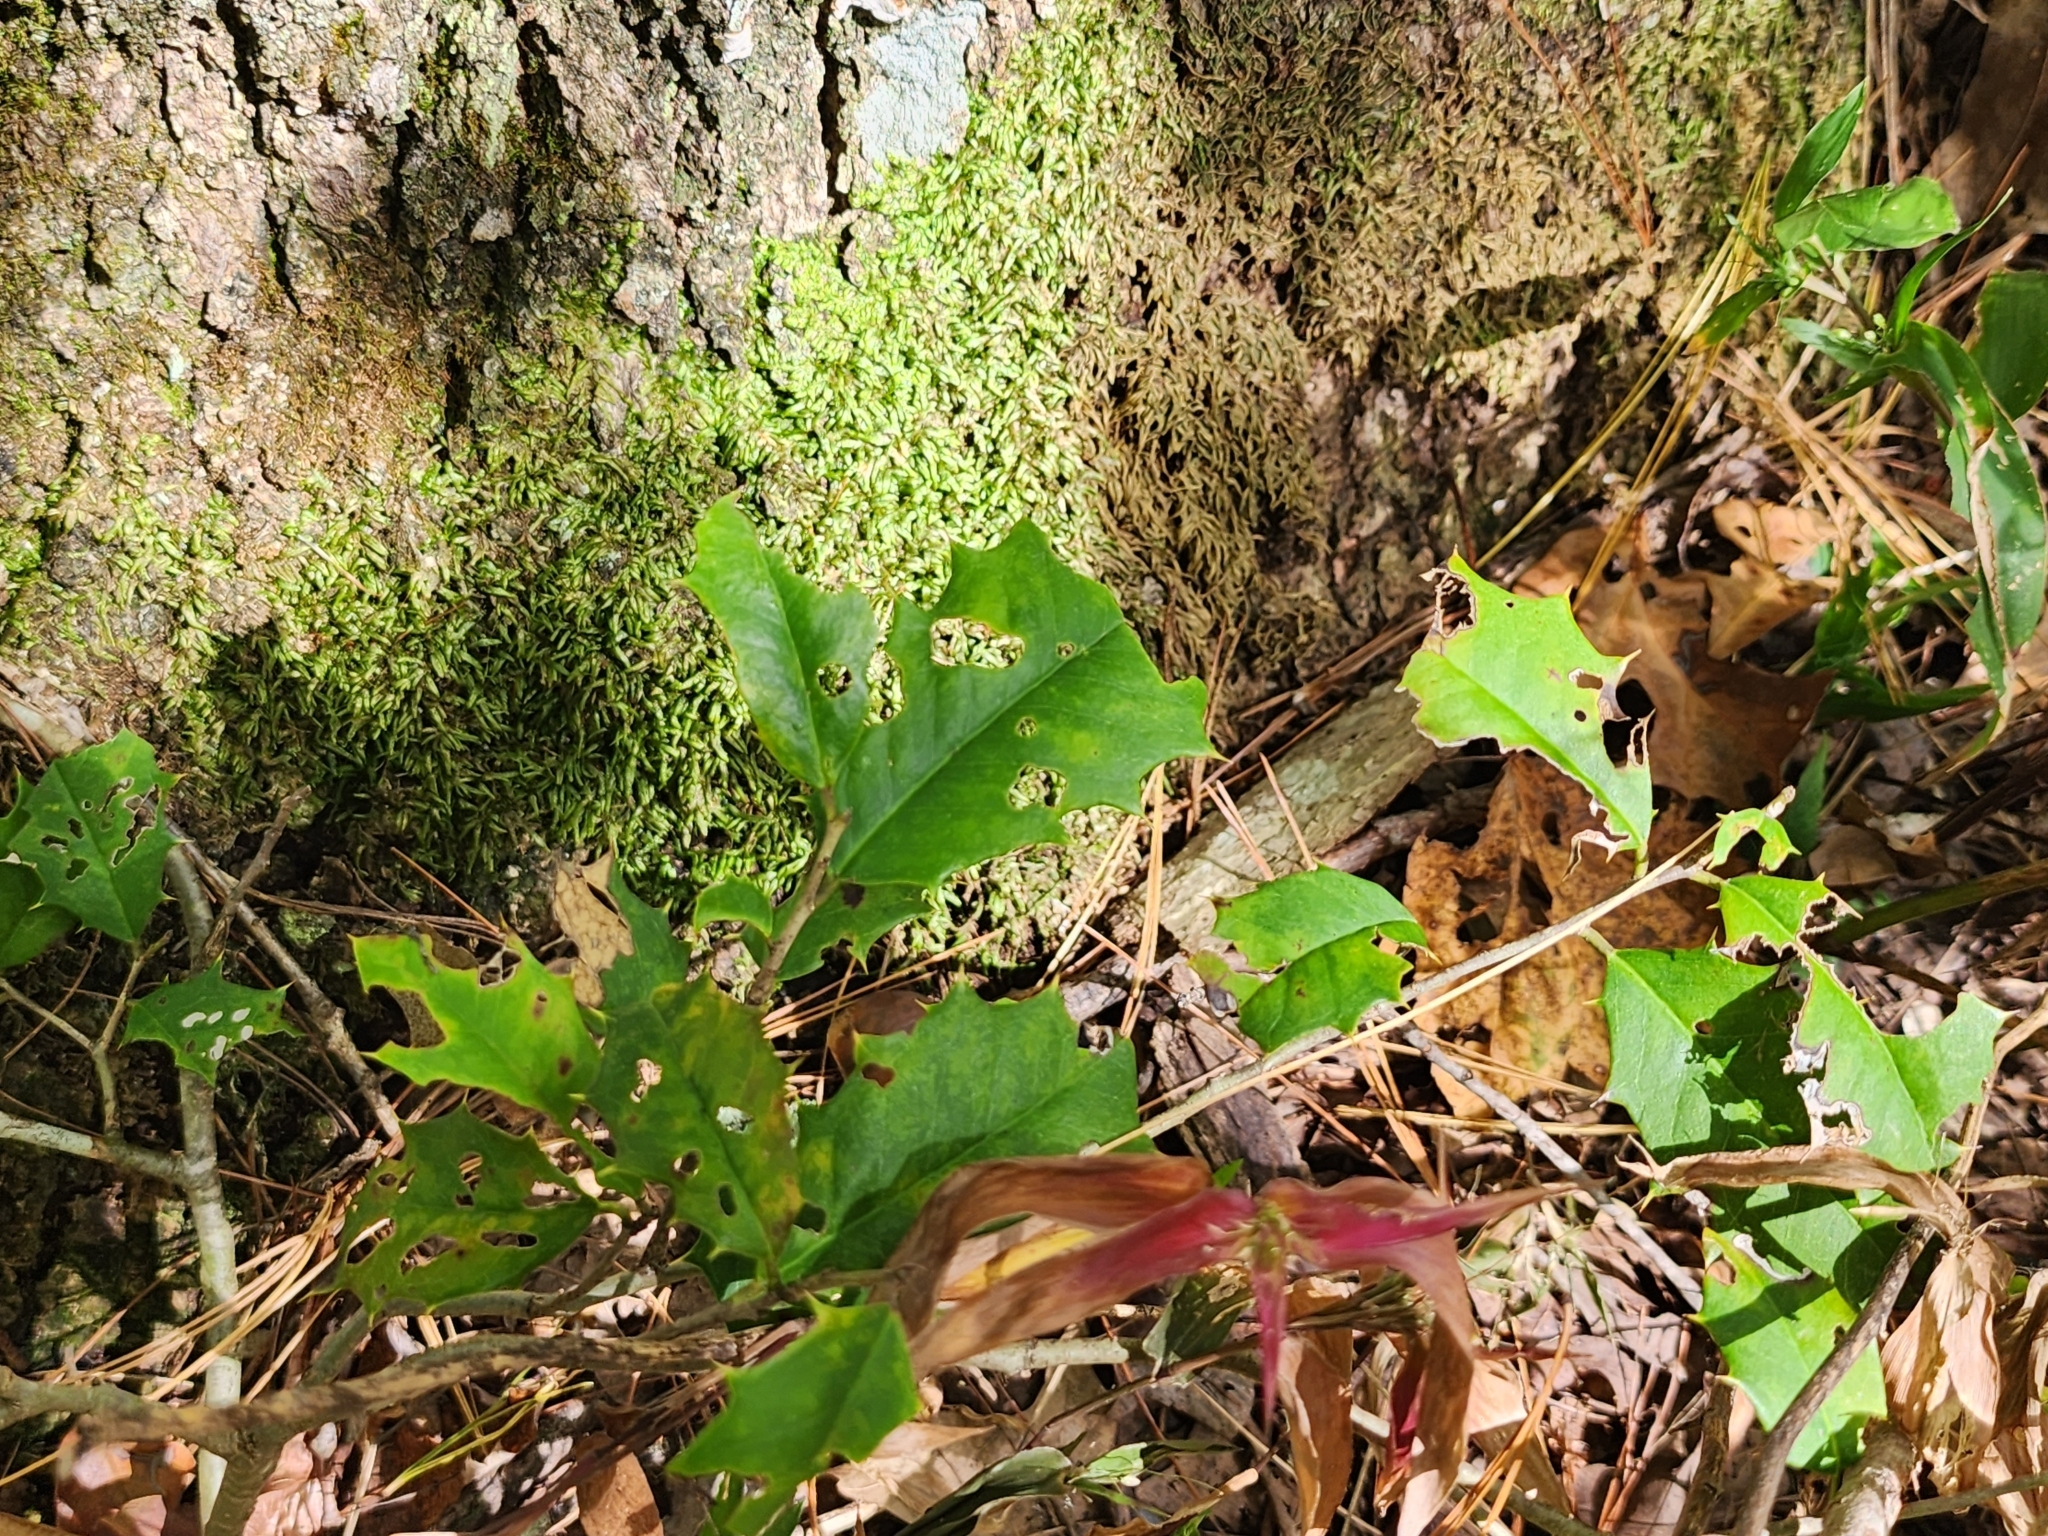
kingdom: Plantae
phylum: Tracheophyta
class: Magnoliopsida
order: Aquifoliales
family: Aquifoliaceae
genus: Ilex
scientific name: Ilex opaca
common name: American holly
